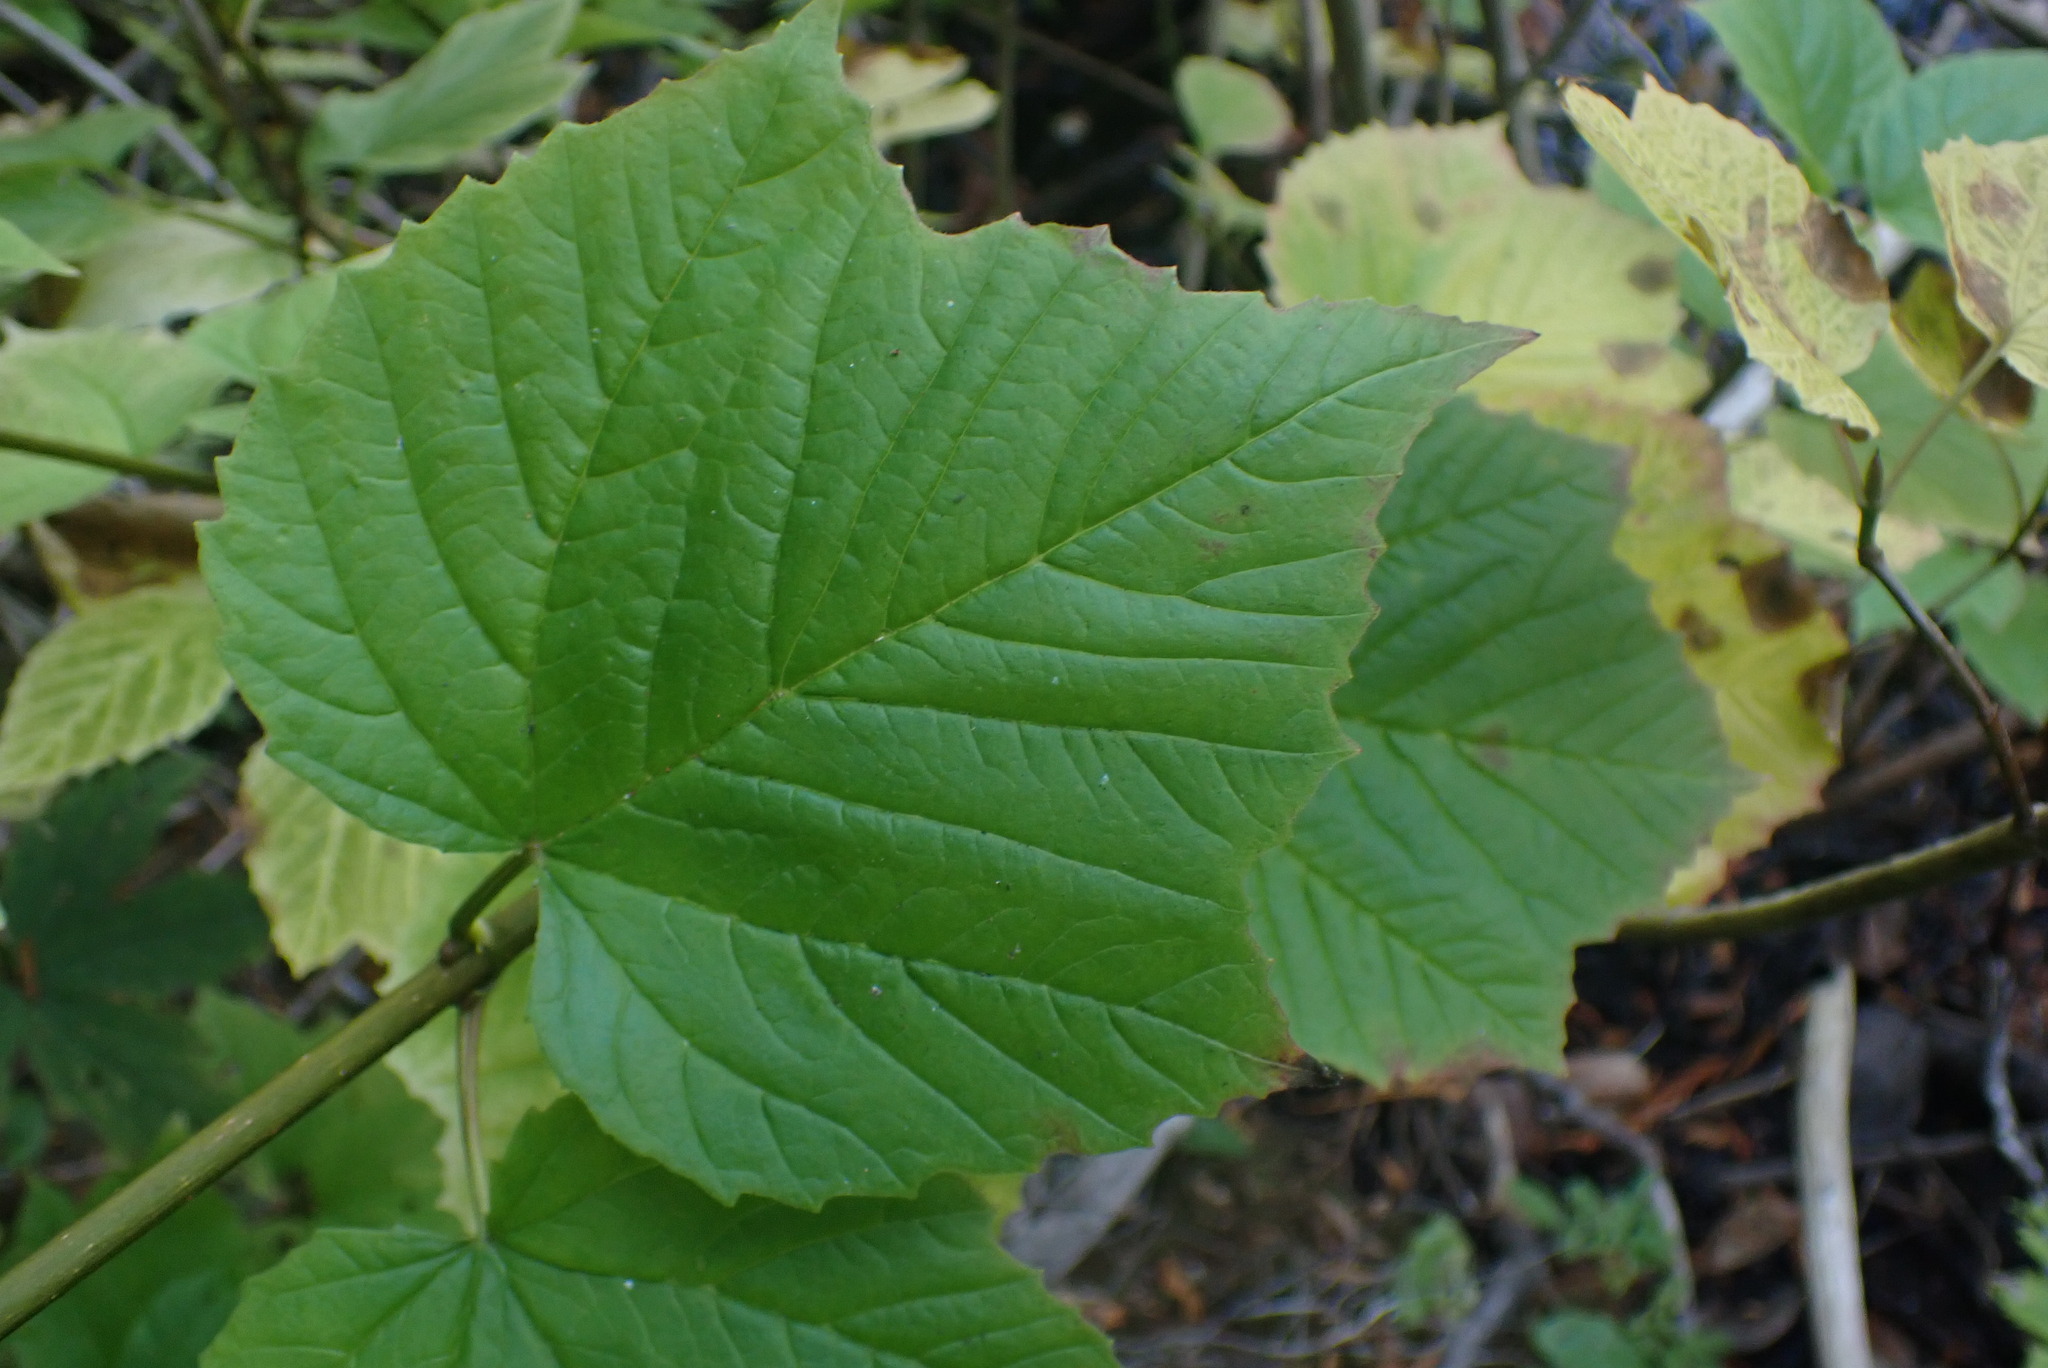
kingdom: Plantae
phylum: Tracheophyta
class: Magnoliopsida
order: Dipsacales
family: Viburnaceae
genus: Viburnum
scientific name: Viburnum edule
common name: Mooseberry
